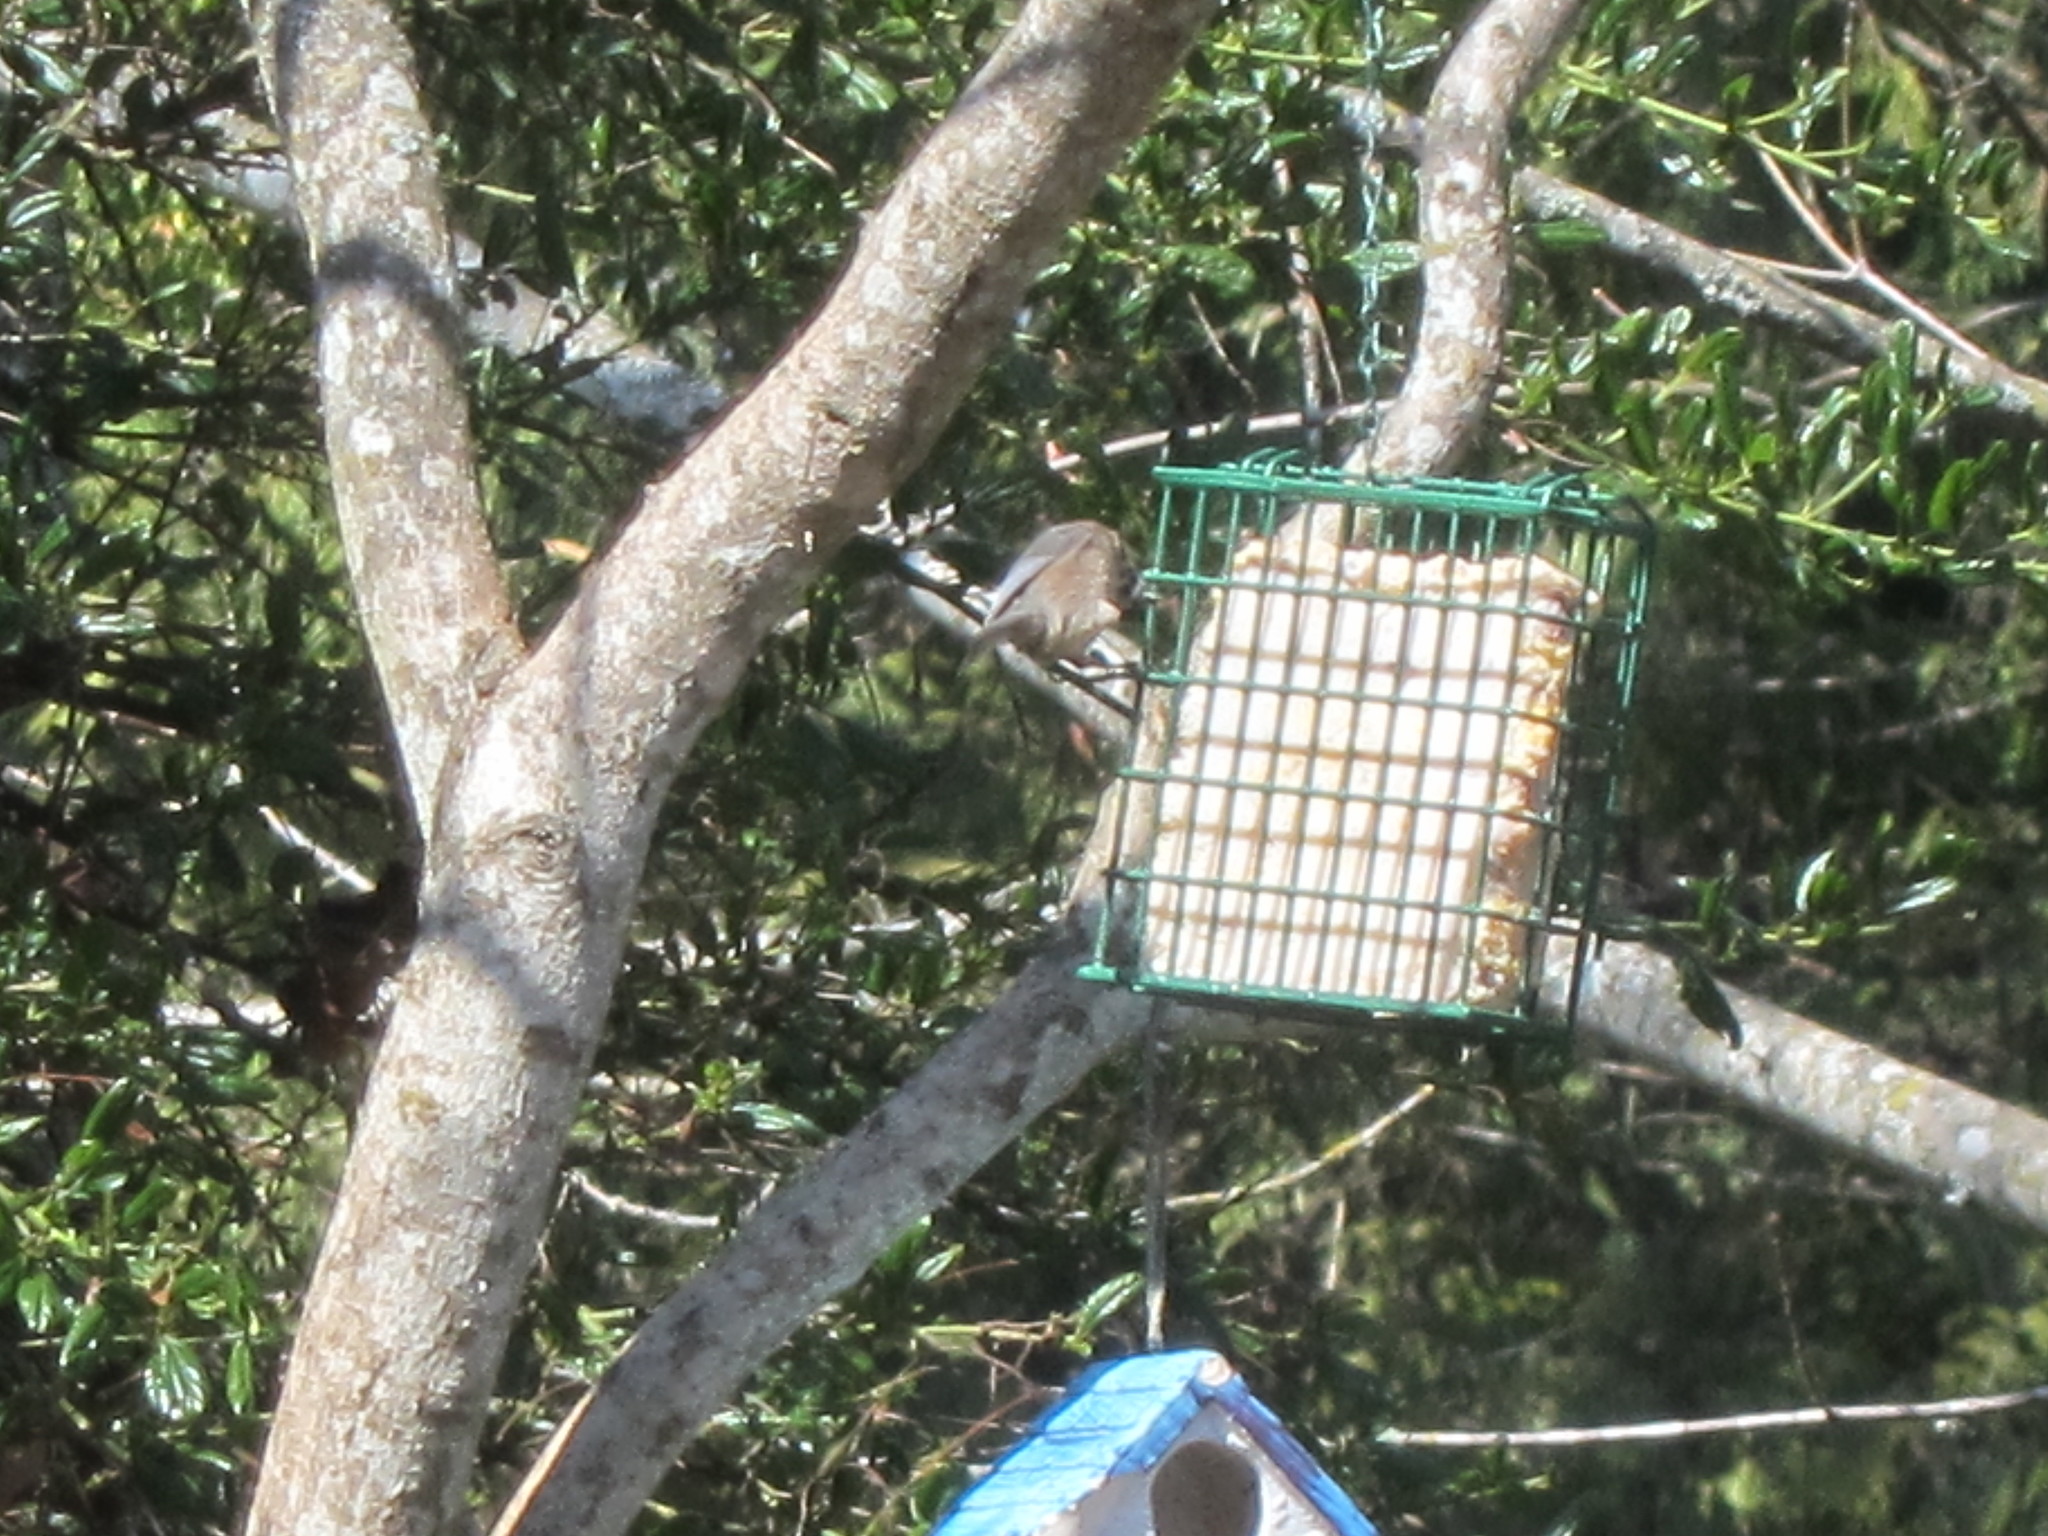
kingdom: Animalia
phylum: Chordata
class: Aves
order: Passeriformes
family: Paridae
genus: Poecile
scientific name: Poecile rufescens
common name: Chestnut-backed chickadee
